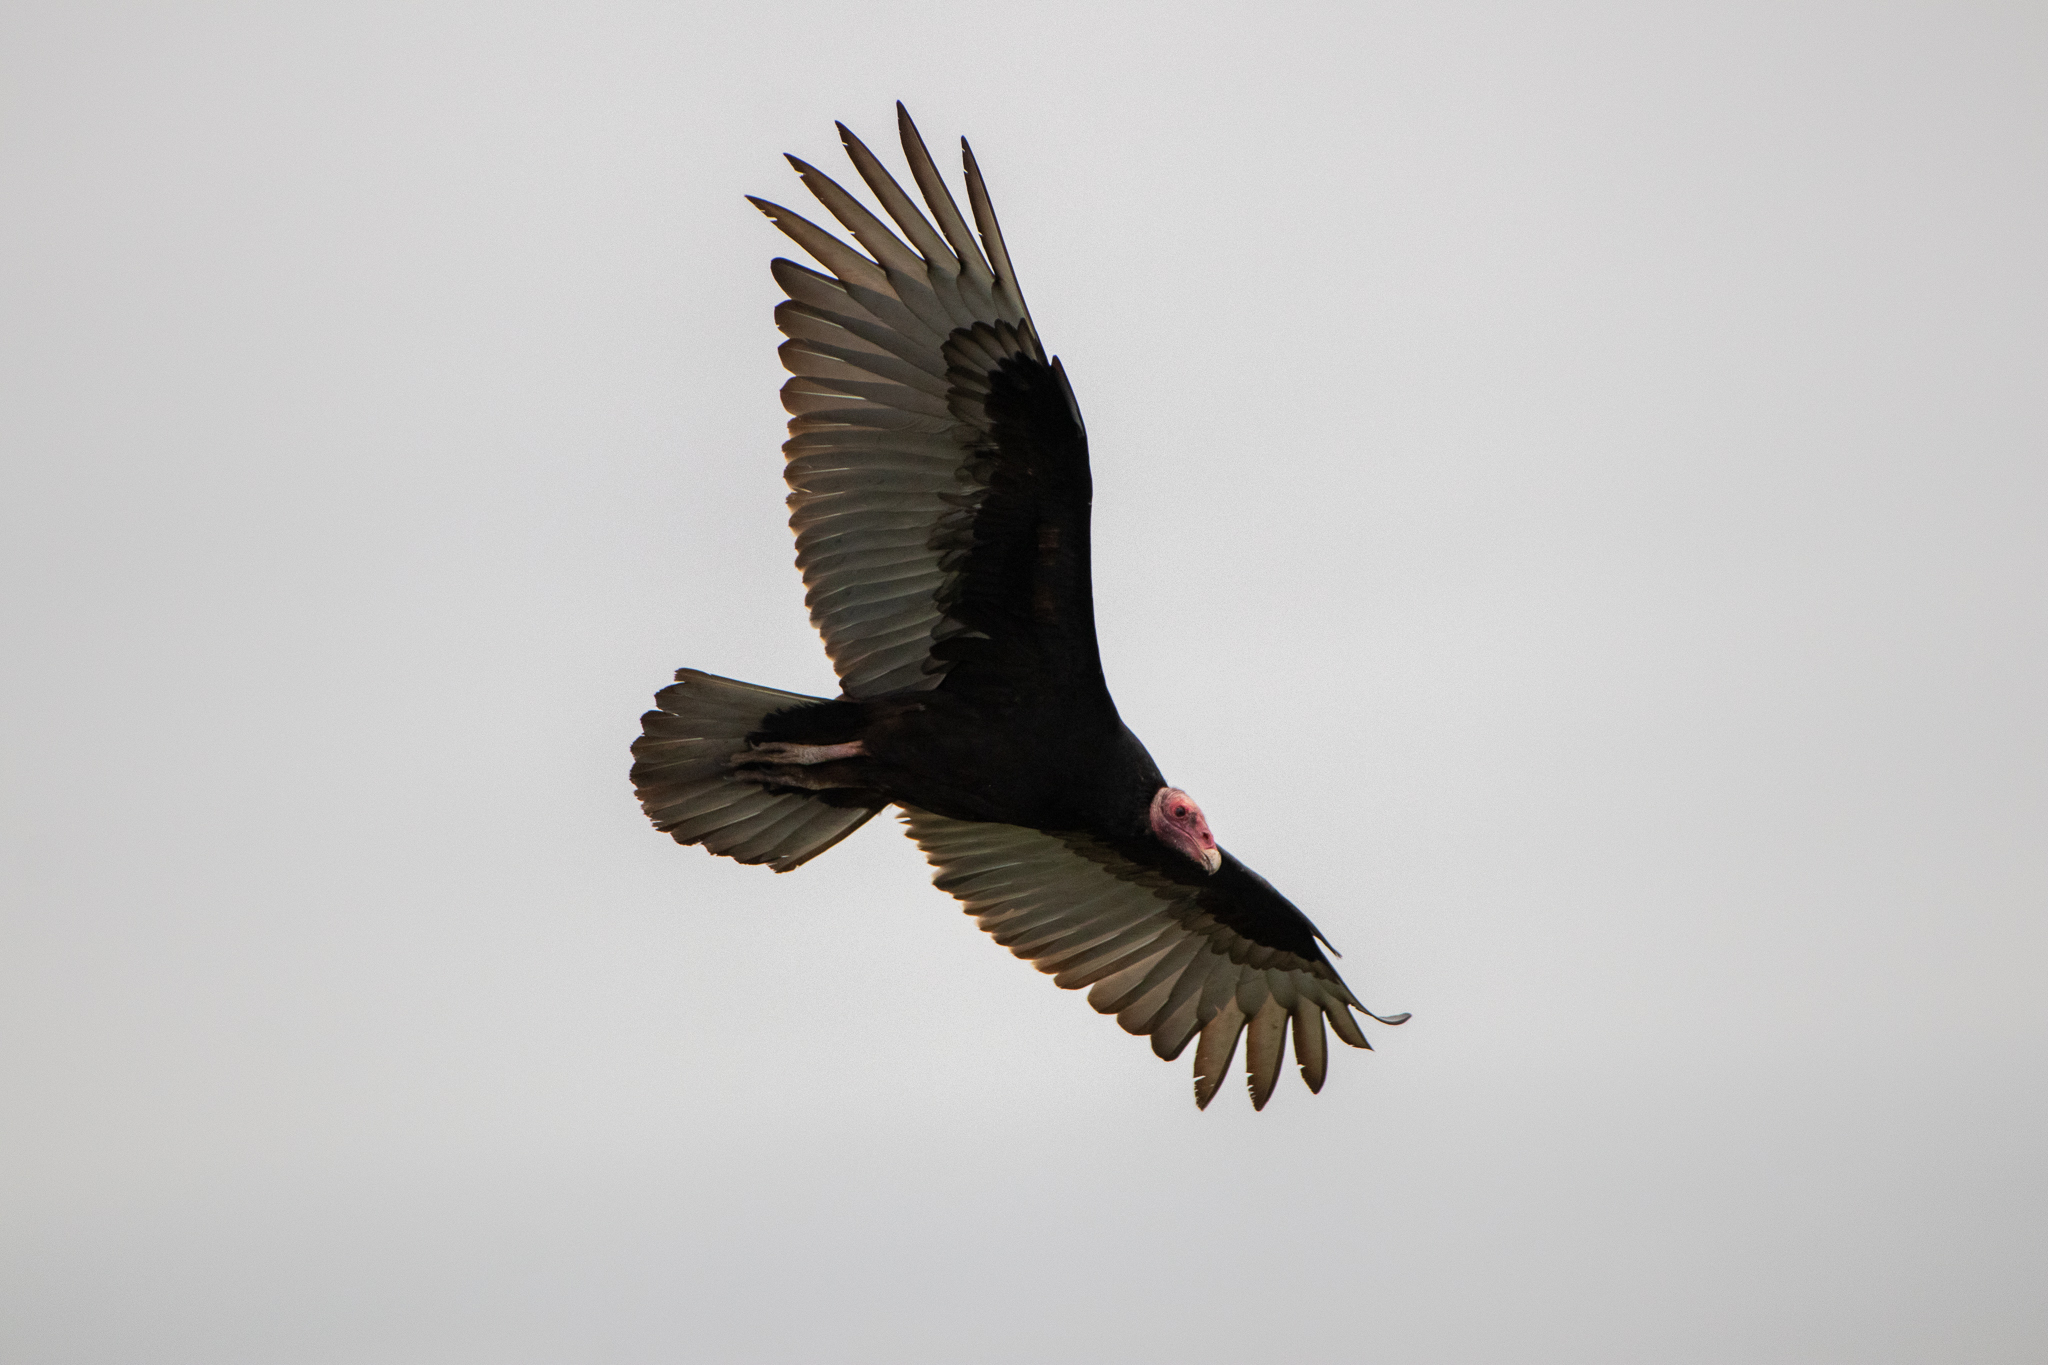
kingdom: Animalia
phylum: Chordata
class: Aves
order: Accipitriformes
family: Cathartidae
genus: Cathartes
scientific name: Cathartes aura
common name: Turkey vulture
